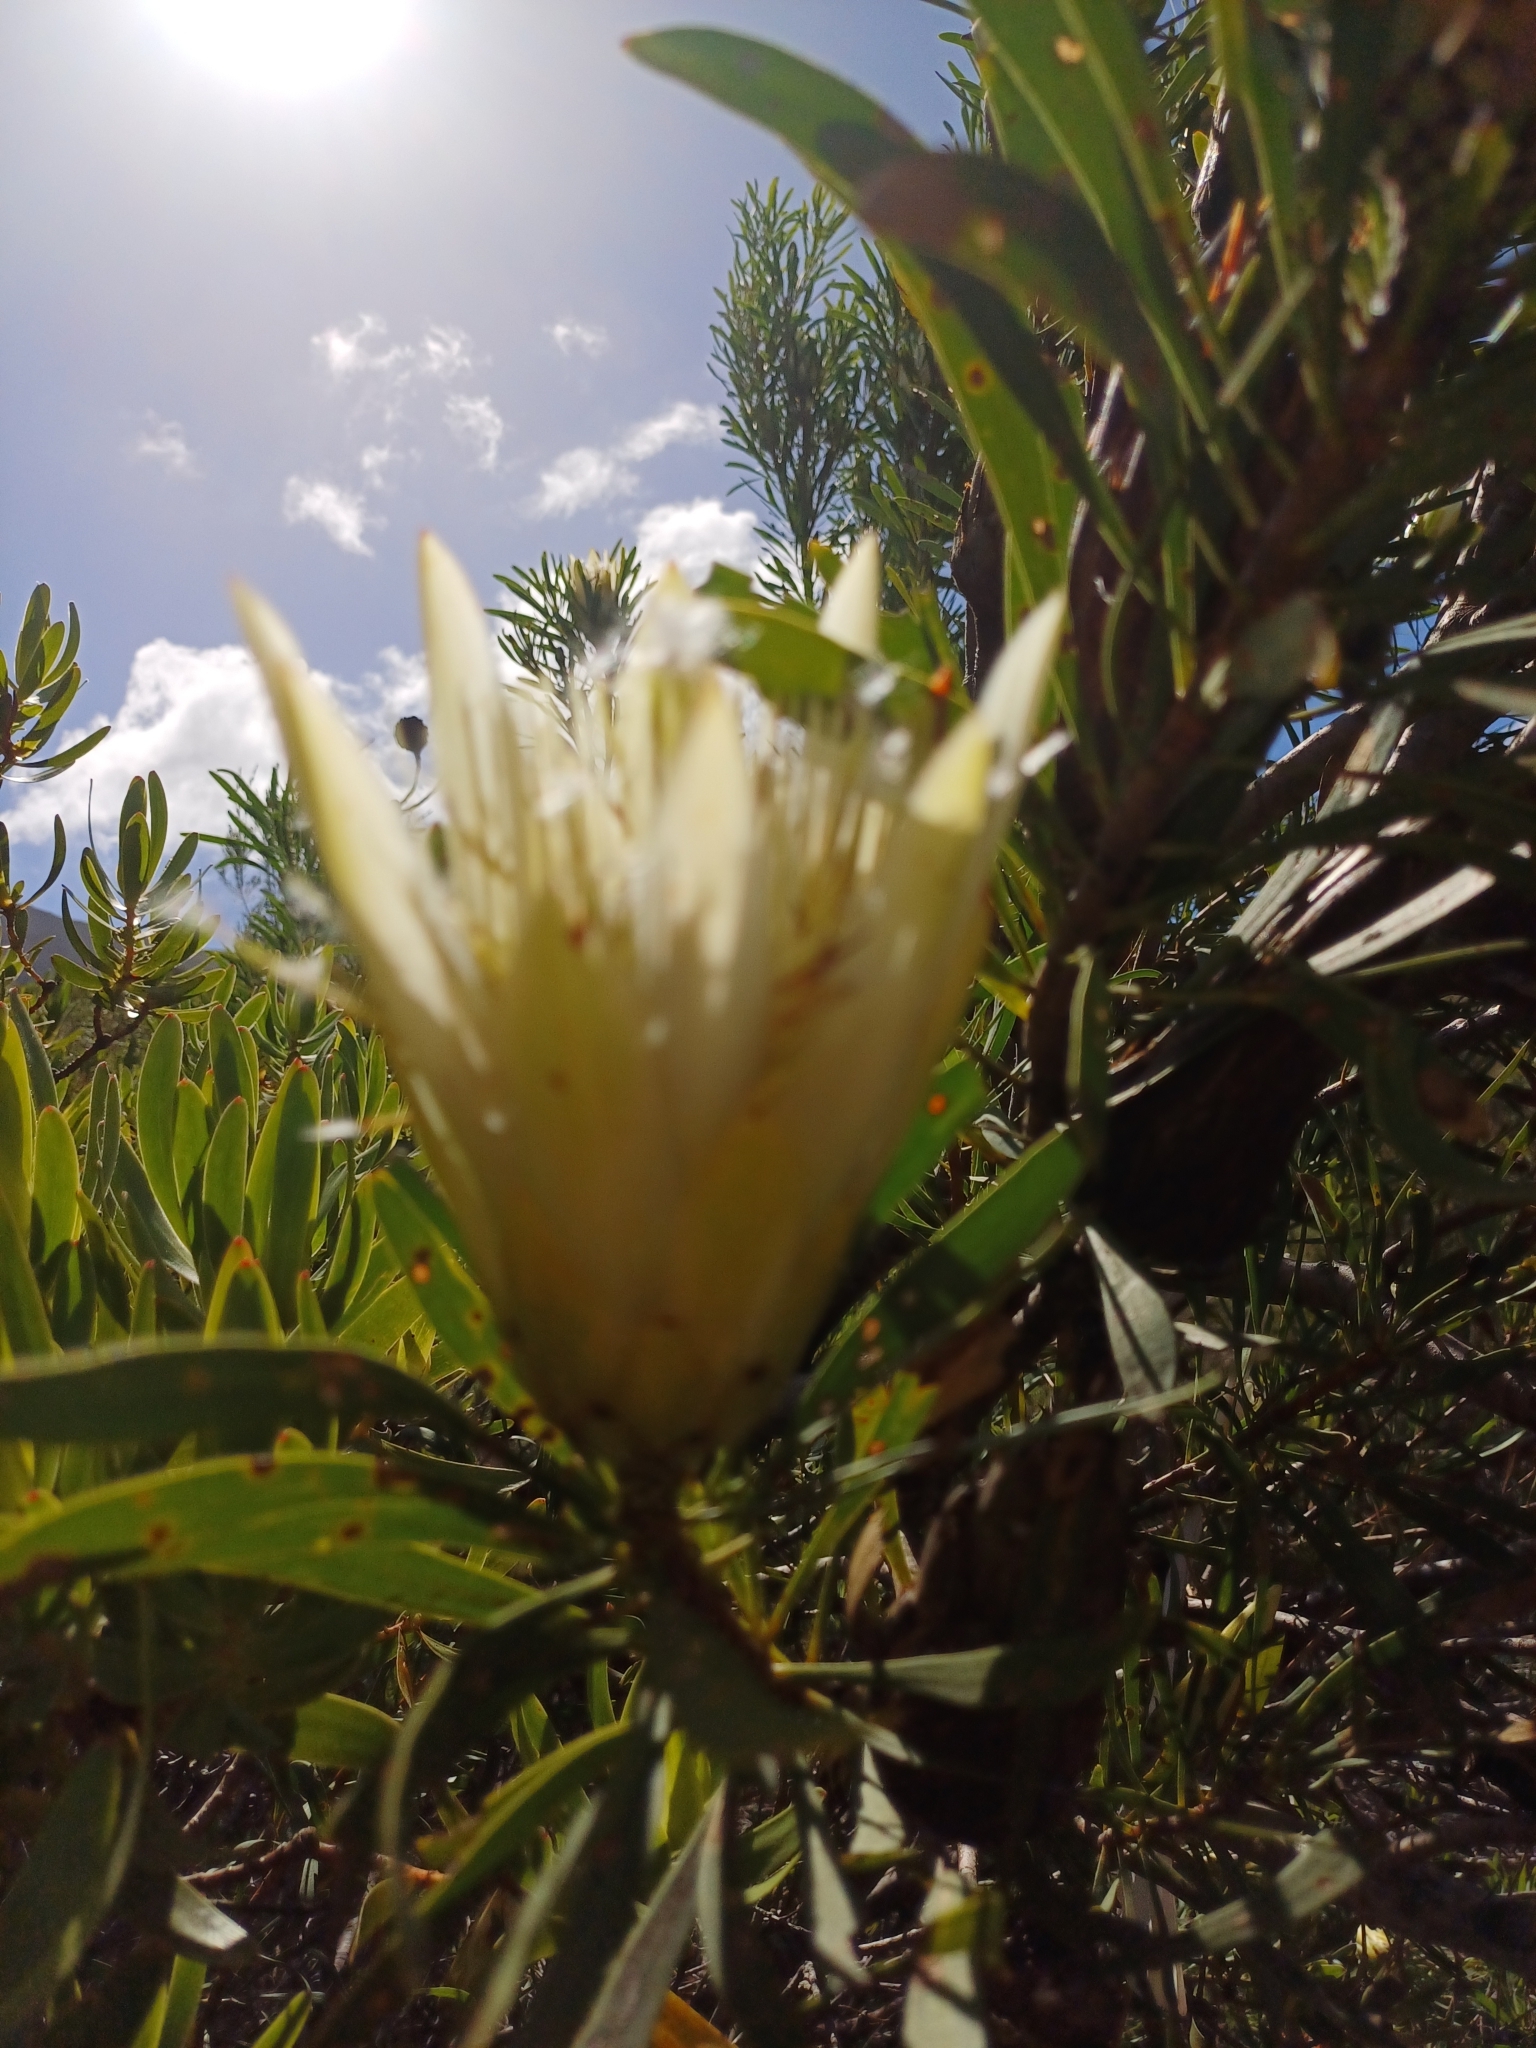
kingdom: Plantae
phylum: Tracheophyta
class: Magnoliopsida
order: Proteales
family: Proteaceae
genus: Protea
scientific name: Protea repens
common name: Sugarbush
